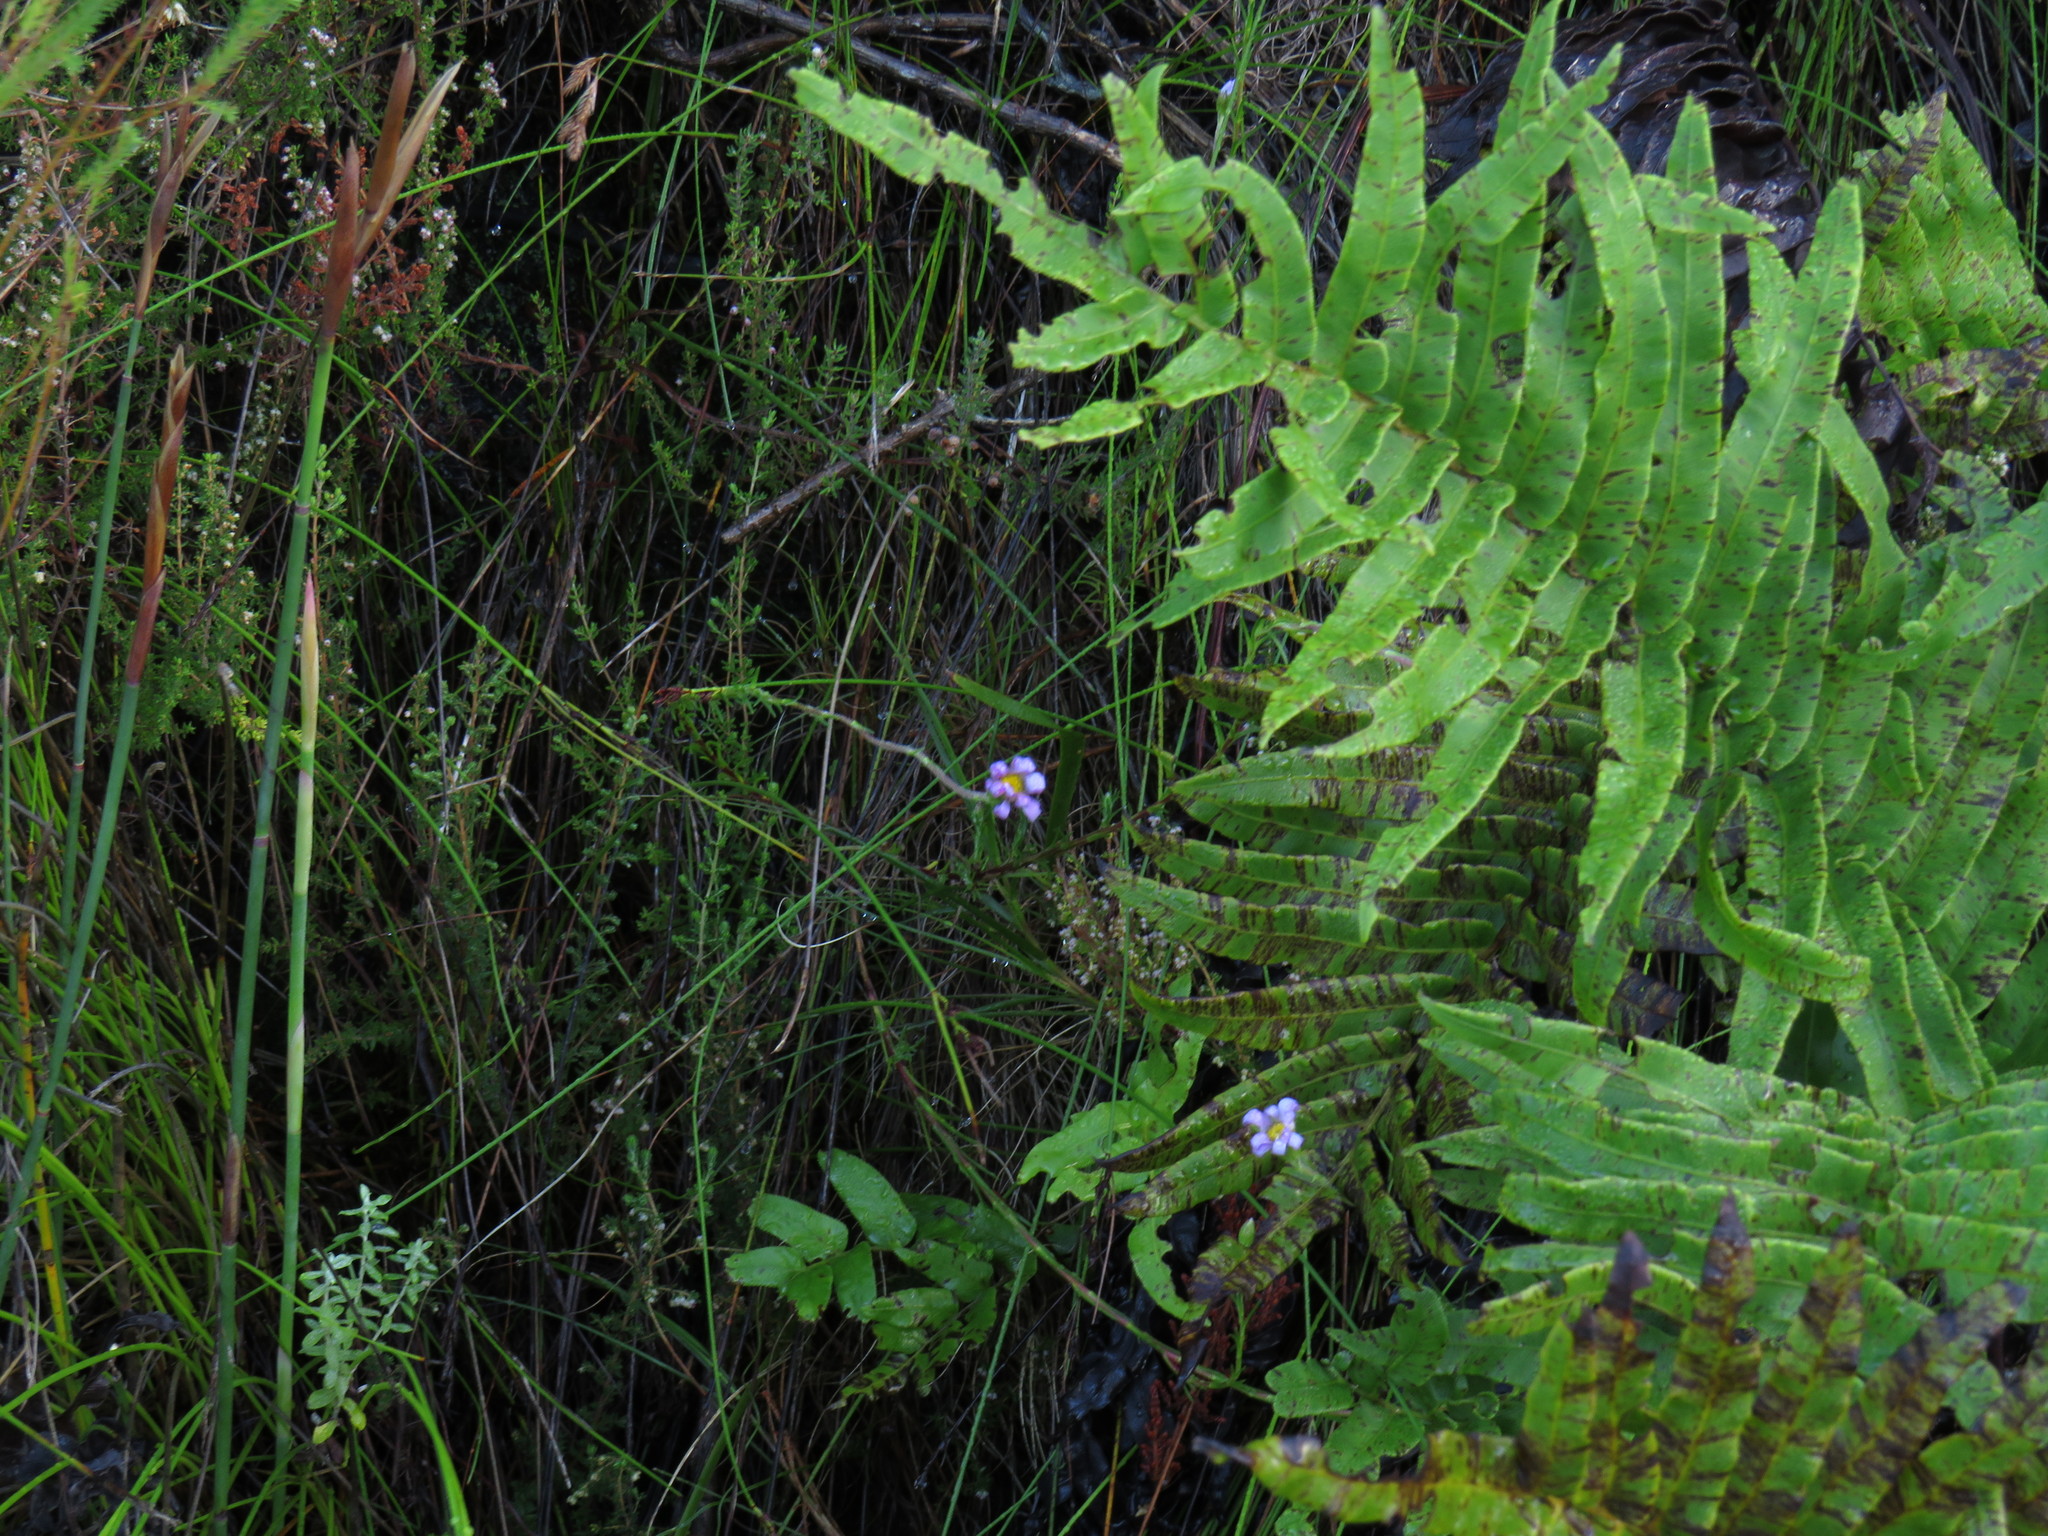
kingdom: Plantae
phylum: Tracheophyta
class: Polypodiopsida
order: Polypodiales
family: Blechnaceae
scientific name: Blechnaceae
